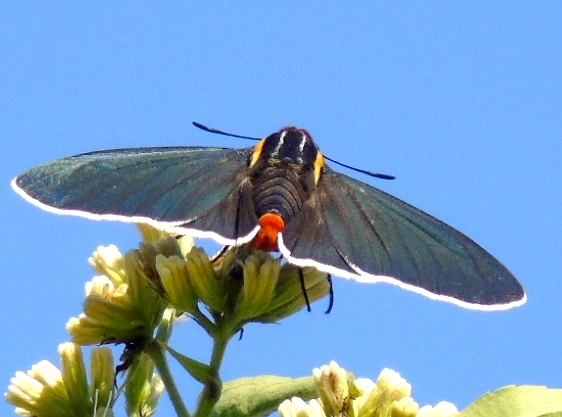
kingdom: Animalia
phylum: Arthropoda
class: Insecta
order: Lepidoptera
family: Hesperiidae
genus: Elbella
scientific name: Elbella scylla
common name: Scylla firetip
